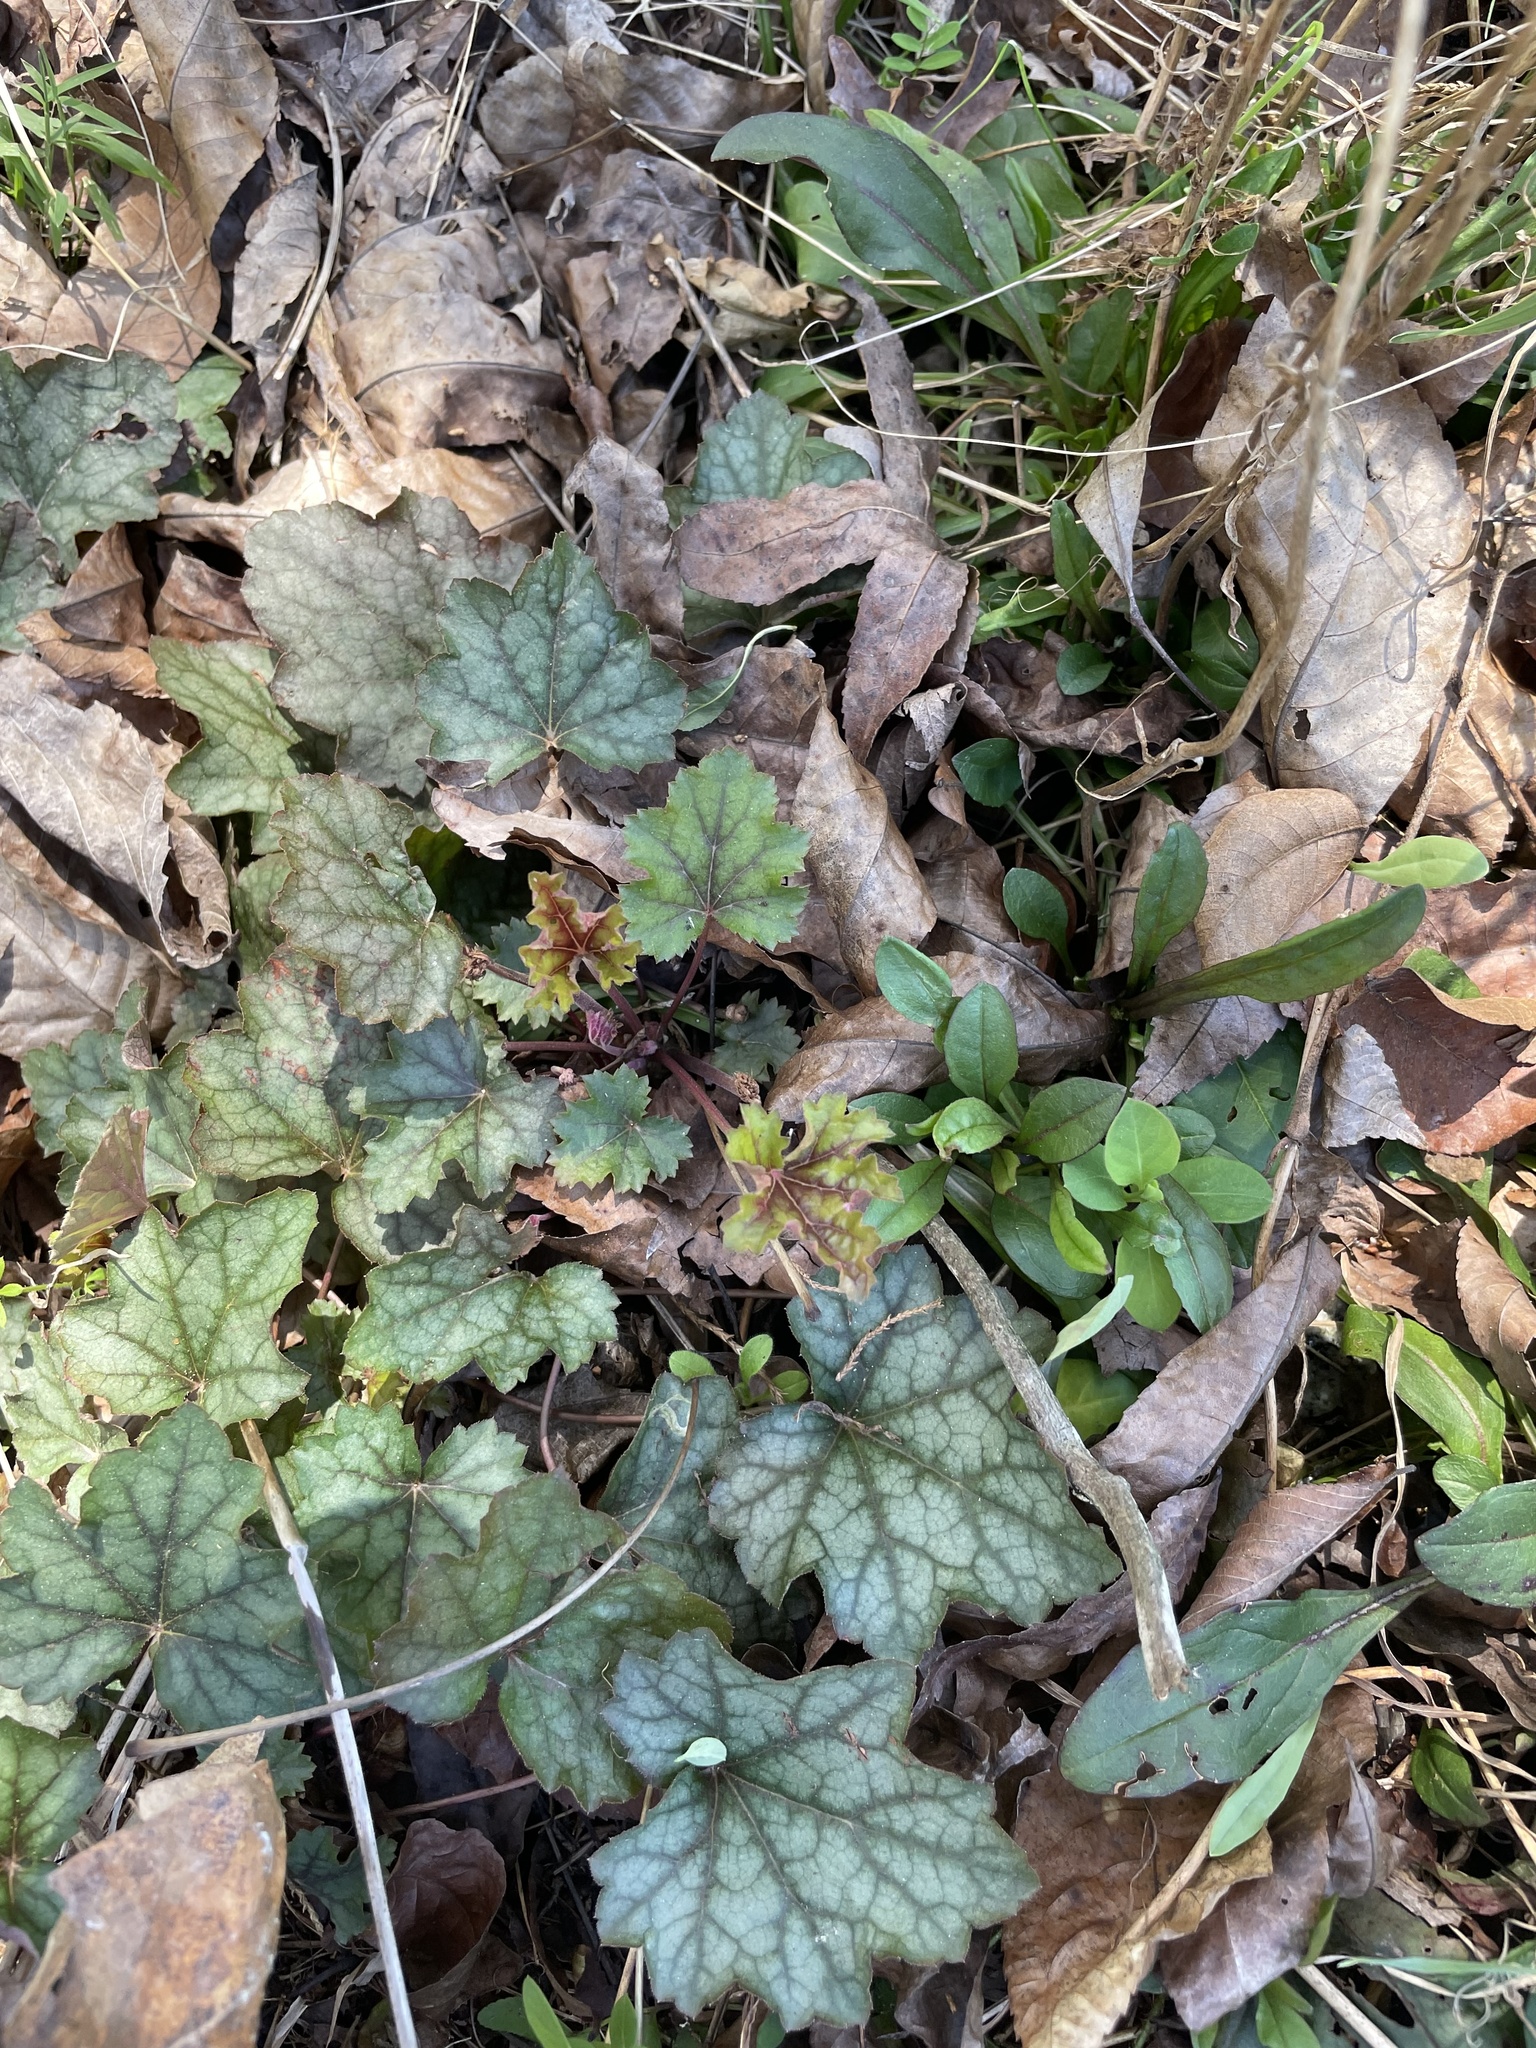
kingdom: Plantae
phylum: Tracheophyta
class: Magnoliopsida
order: Saxifragales
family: Saxifragaceae
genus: Heuchera
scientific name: Heuchera caroliniana
